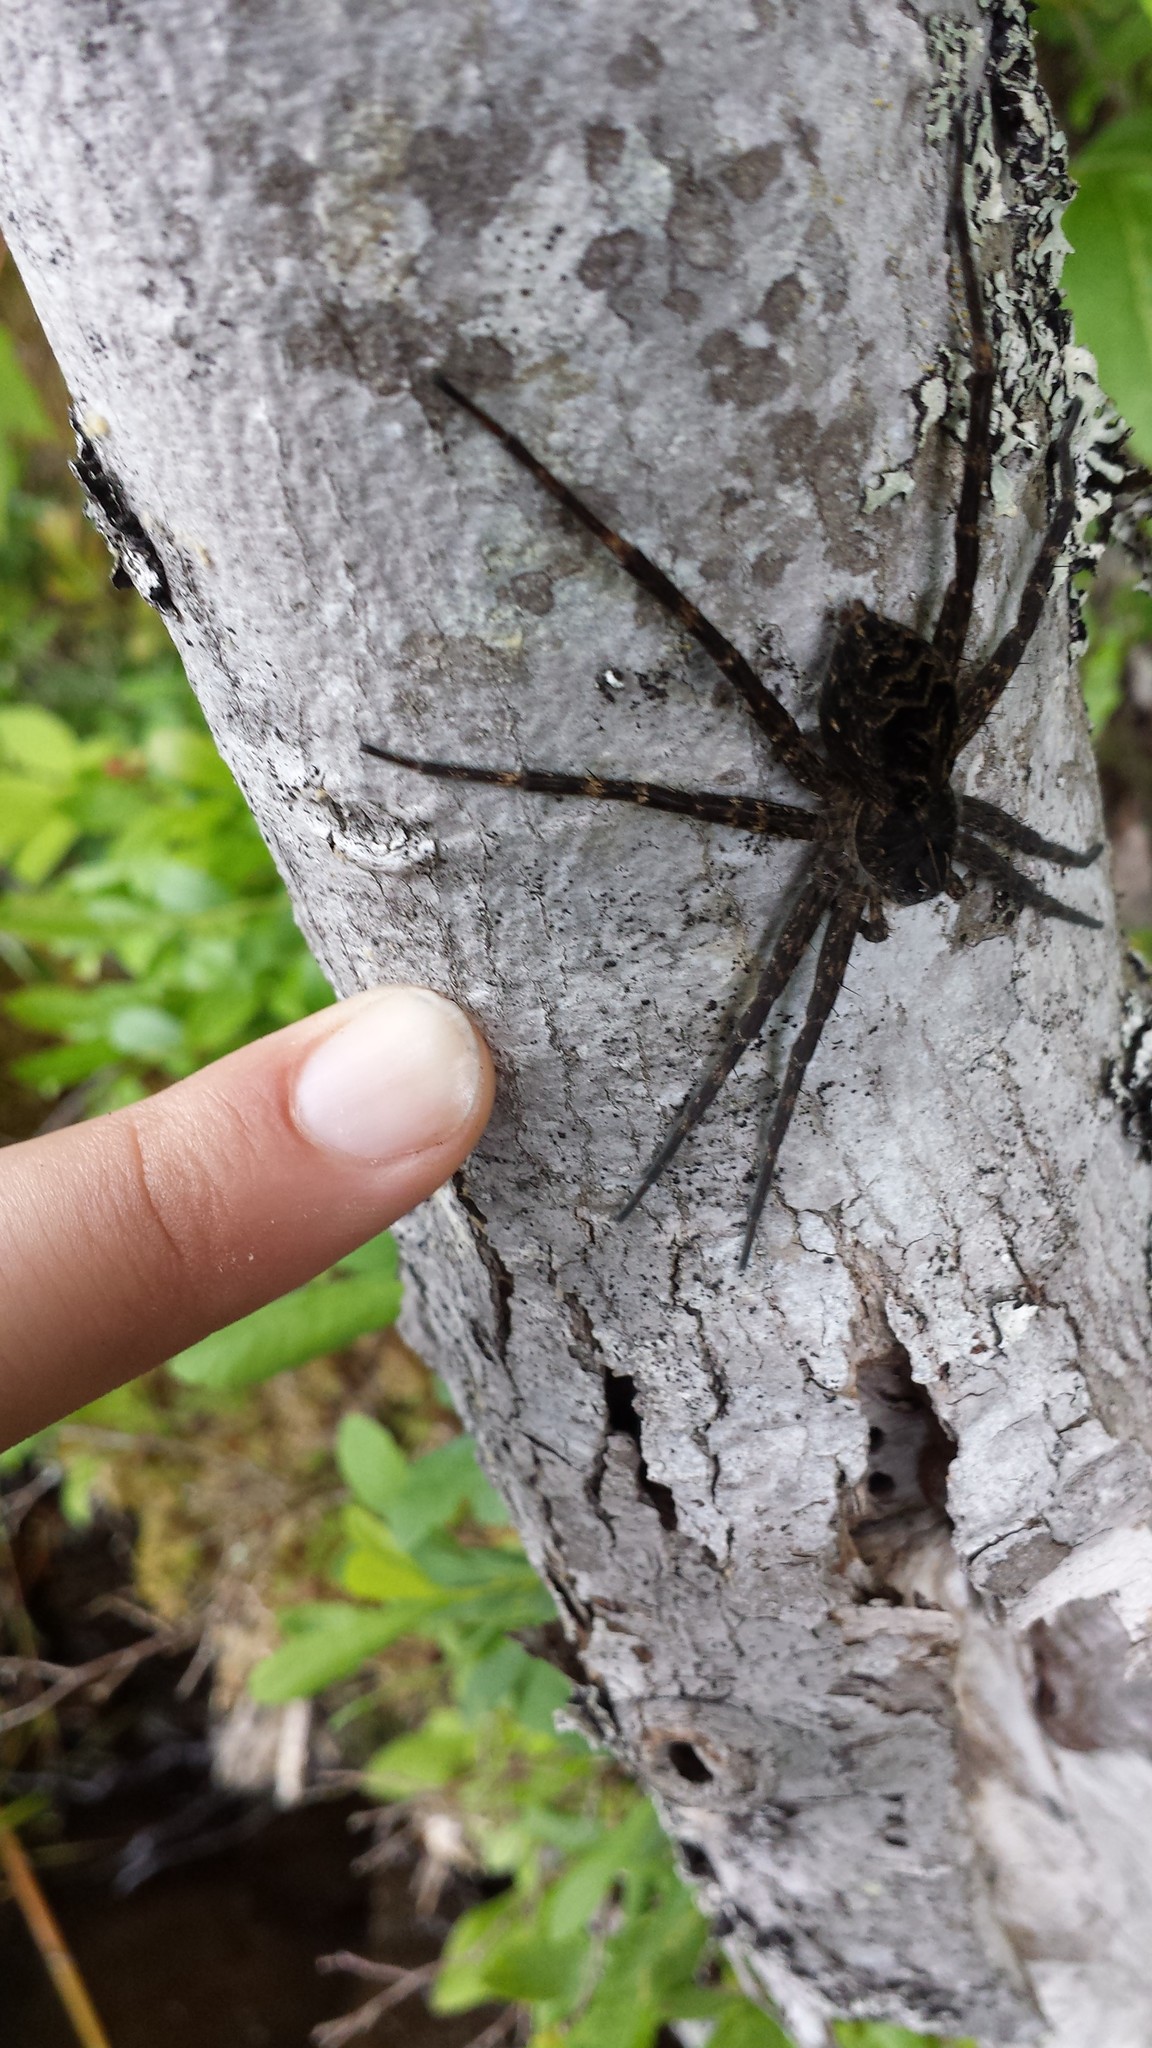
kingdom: Animalia
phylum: Arthropoda
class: Arachnida
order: Araneae
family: Pisauridae
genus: Dolomedes
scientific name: Dolomedes scriptus
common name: Striped fishing spider
